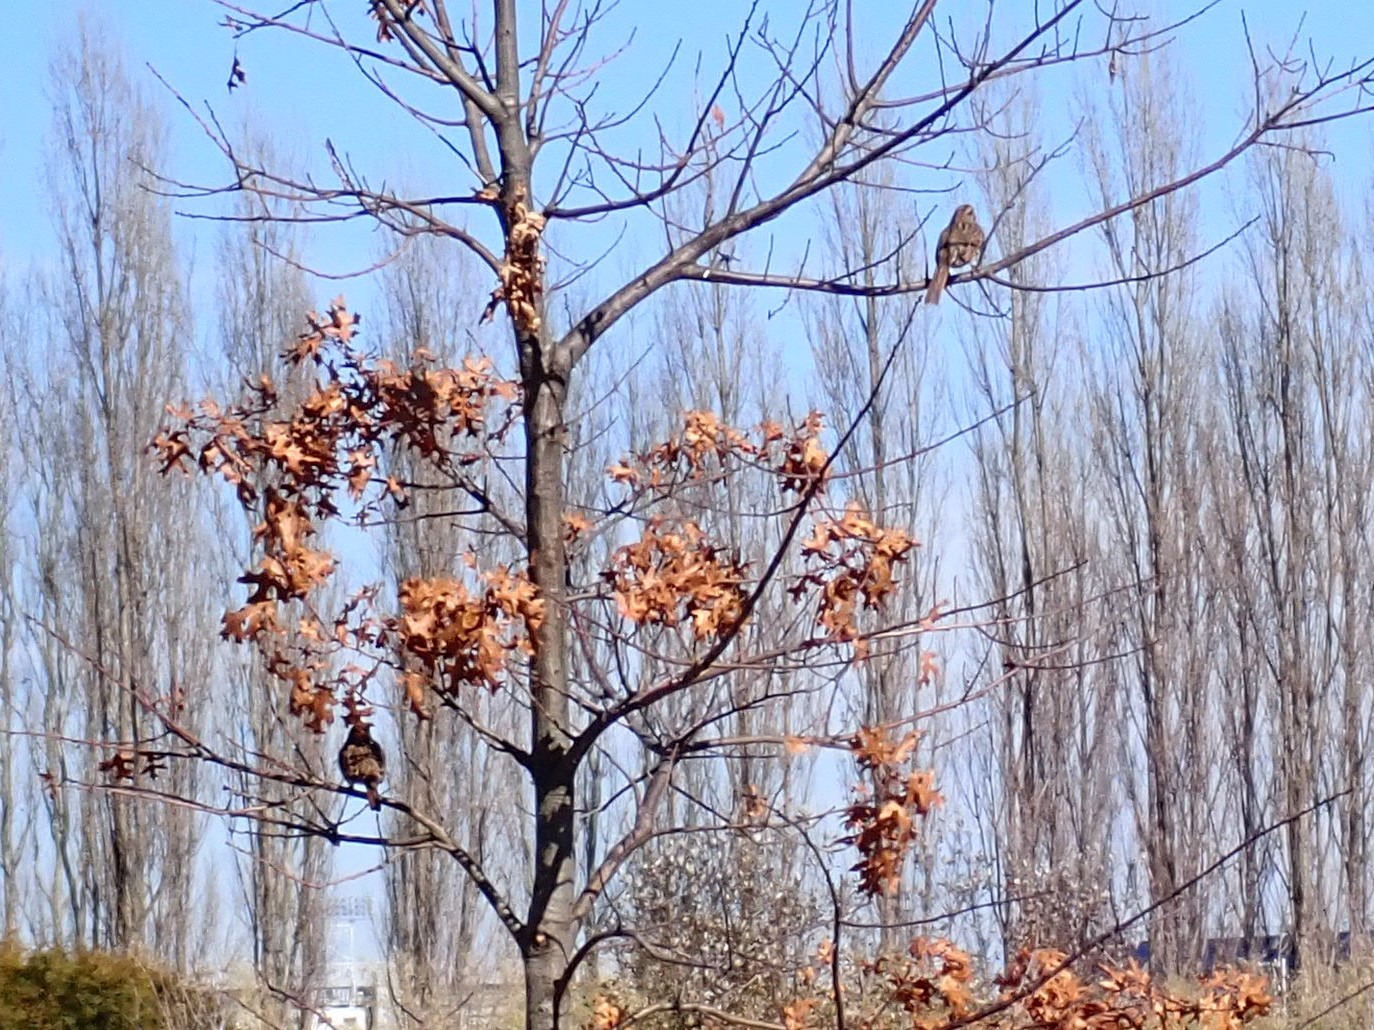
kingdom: Animalia
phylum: Chordata
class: Aves
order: Passeriformes
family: Passerellidae
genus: Melospiza
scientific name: Melospiza melodia
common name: Song sparrow
